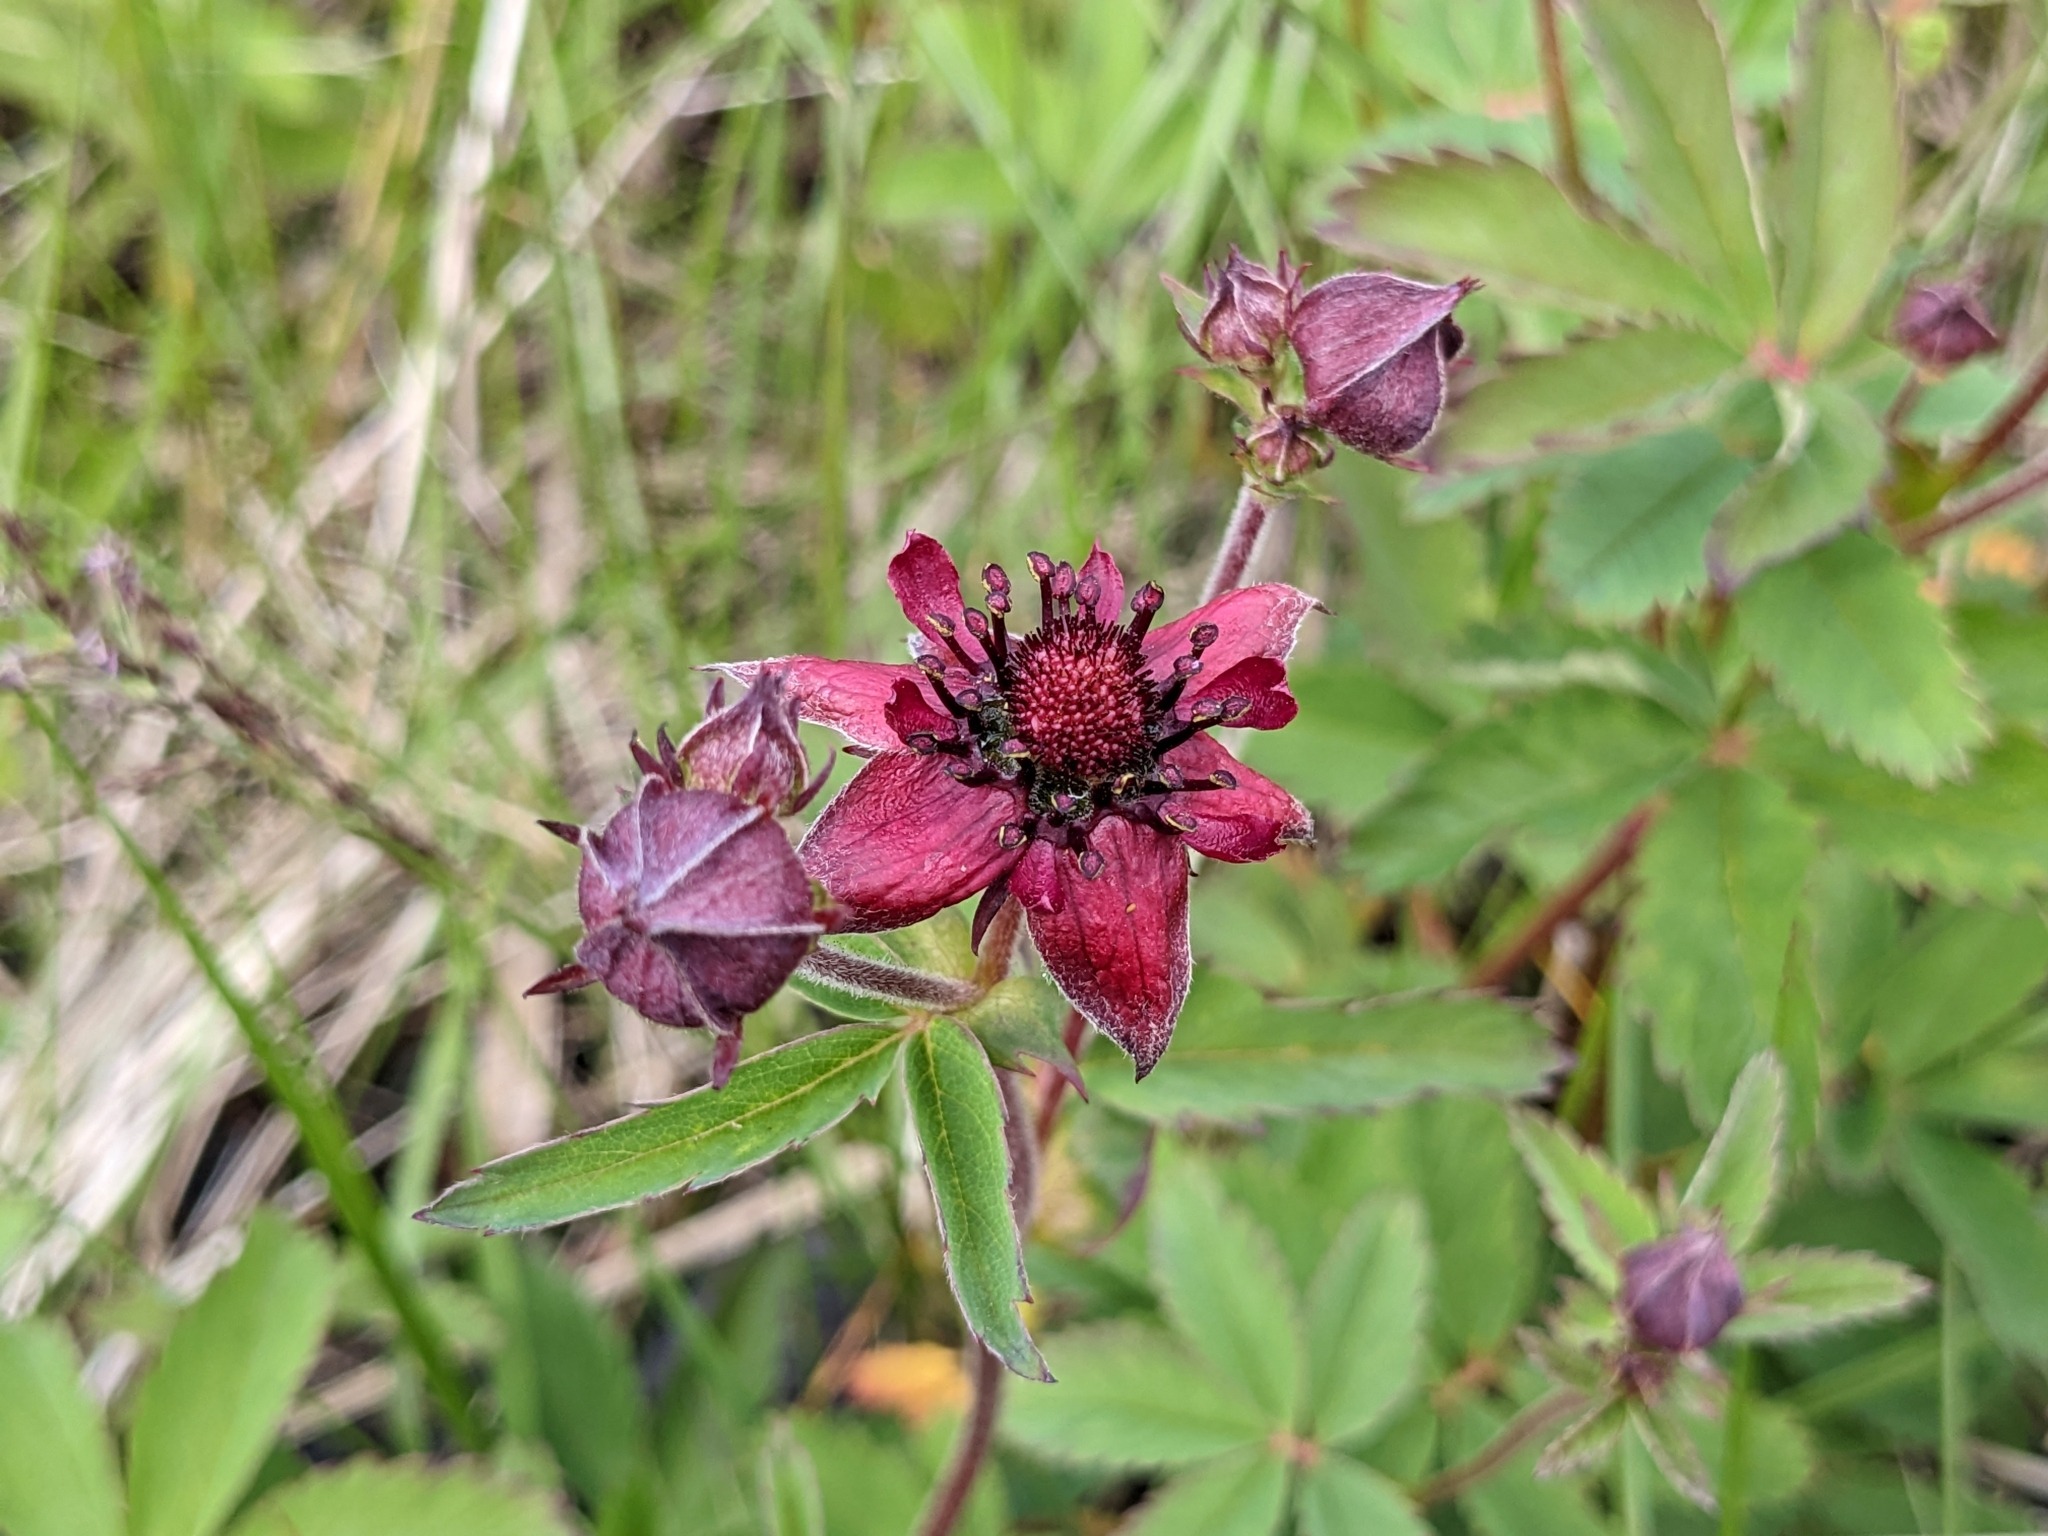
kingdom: Plantae
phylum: Tracheophyta
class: Magnoliopsida
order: Rosales
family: Rosaceae
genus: Comarum
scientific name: Comarum palustre
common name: Marsh cinquefoil
